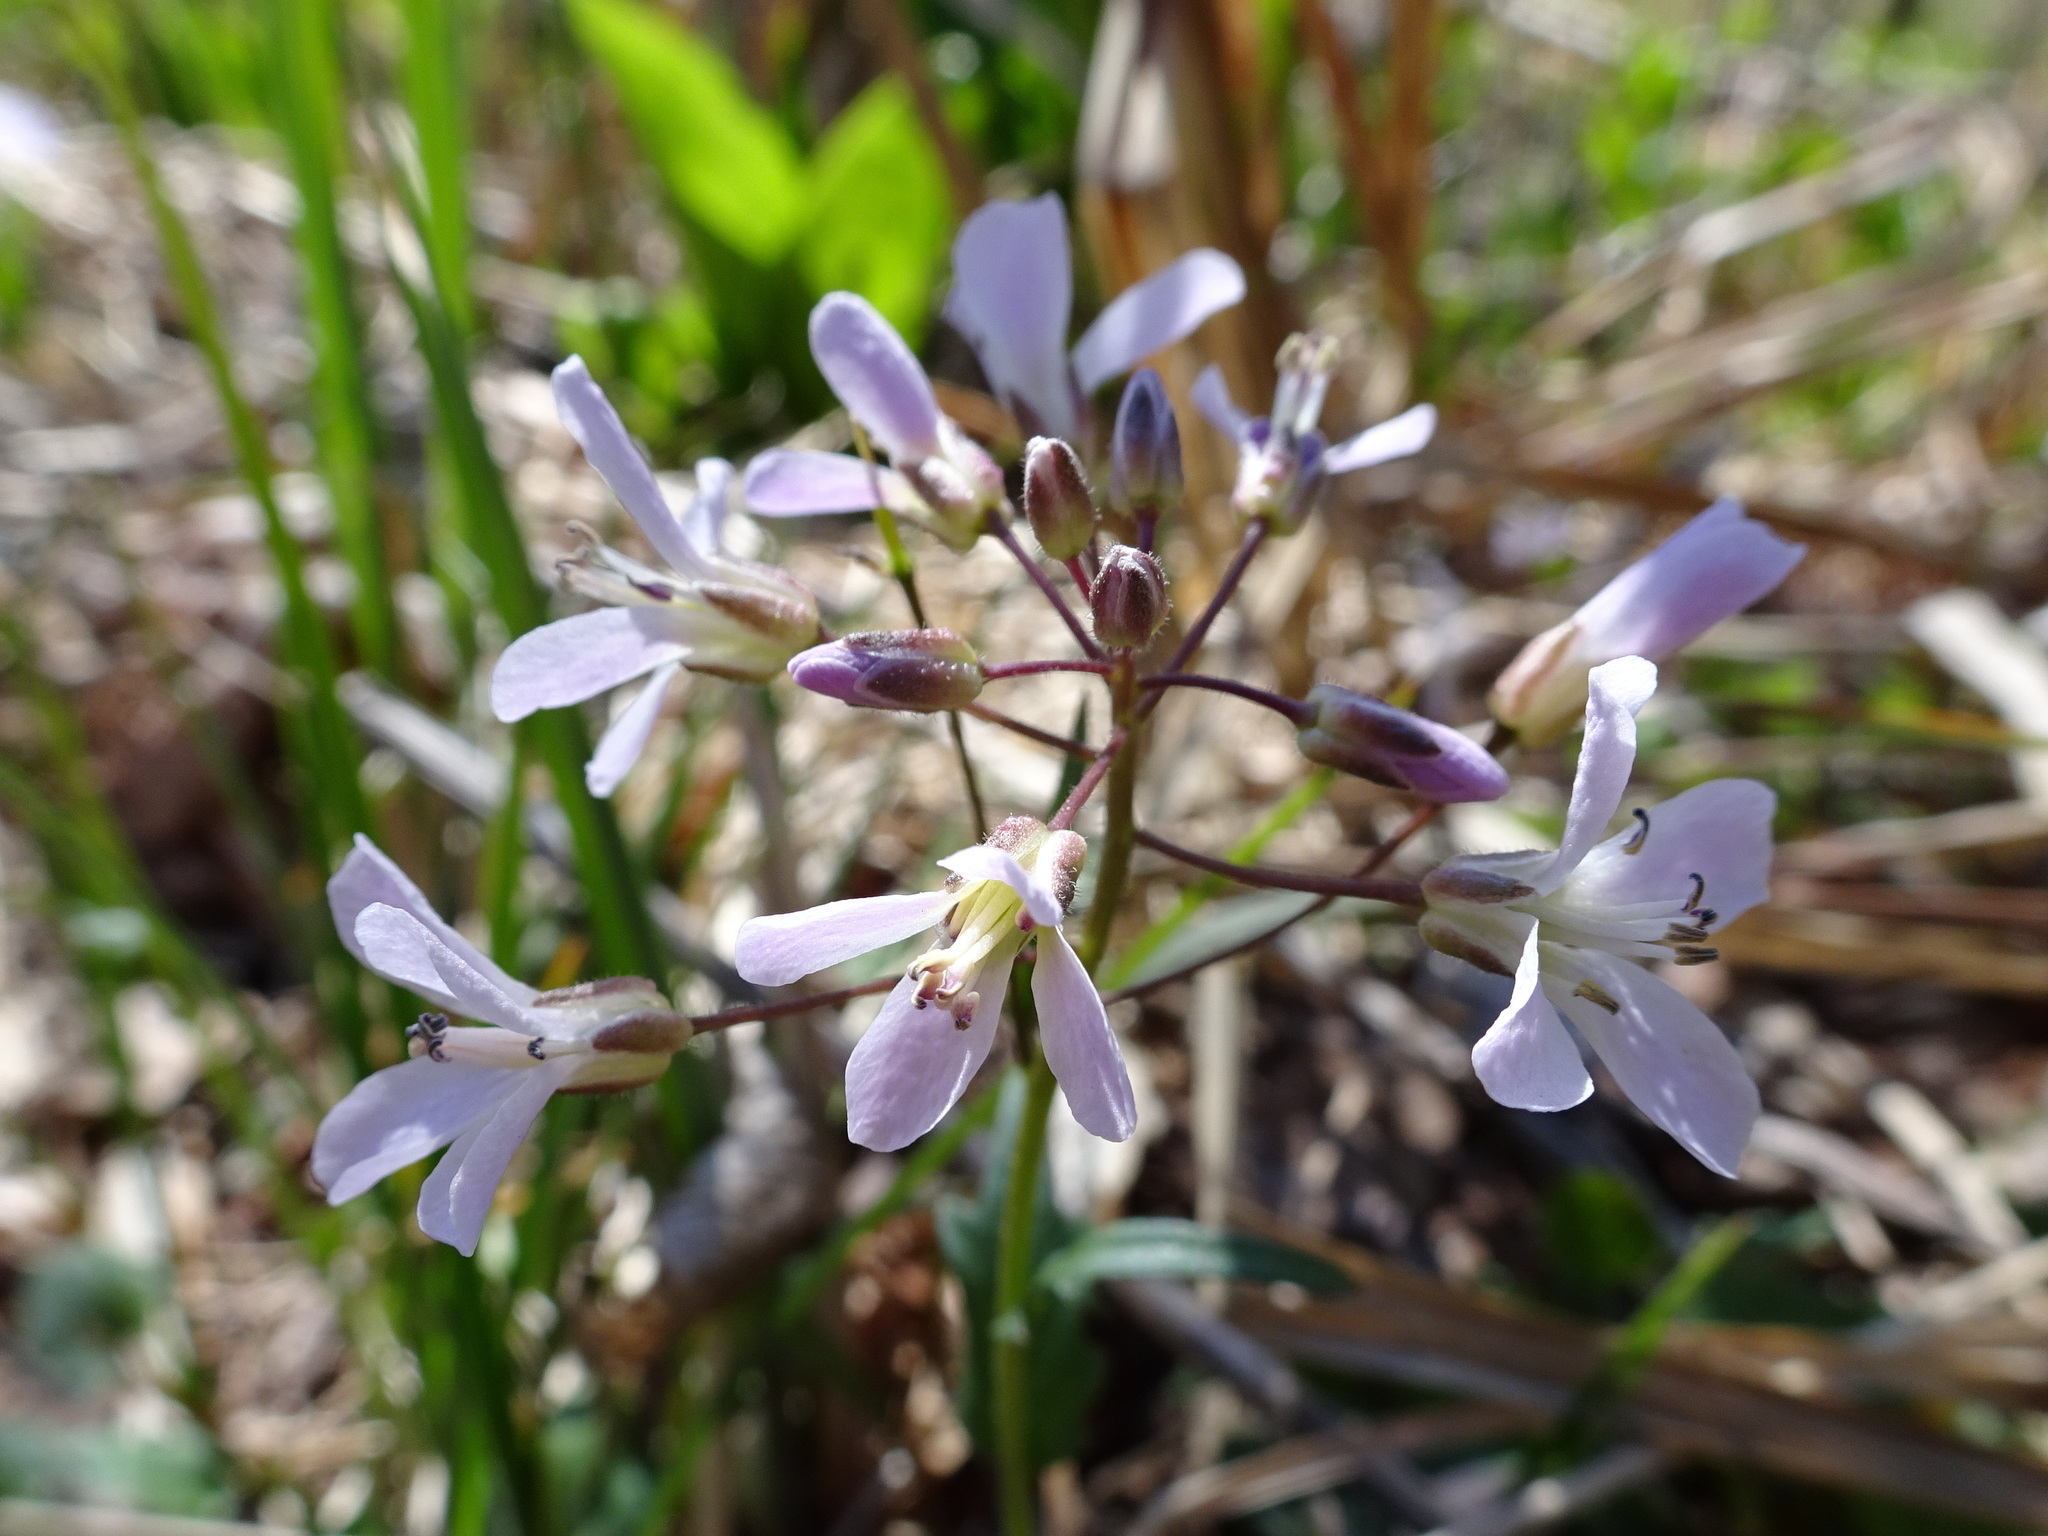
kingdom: Plantae
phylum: Tracheophyta
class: Magnoliopsida
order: Brassicales
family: Brassicaceae
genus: Cardamine
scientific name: Cardamine douglassii
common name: Purple cress
